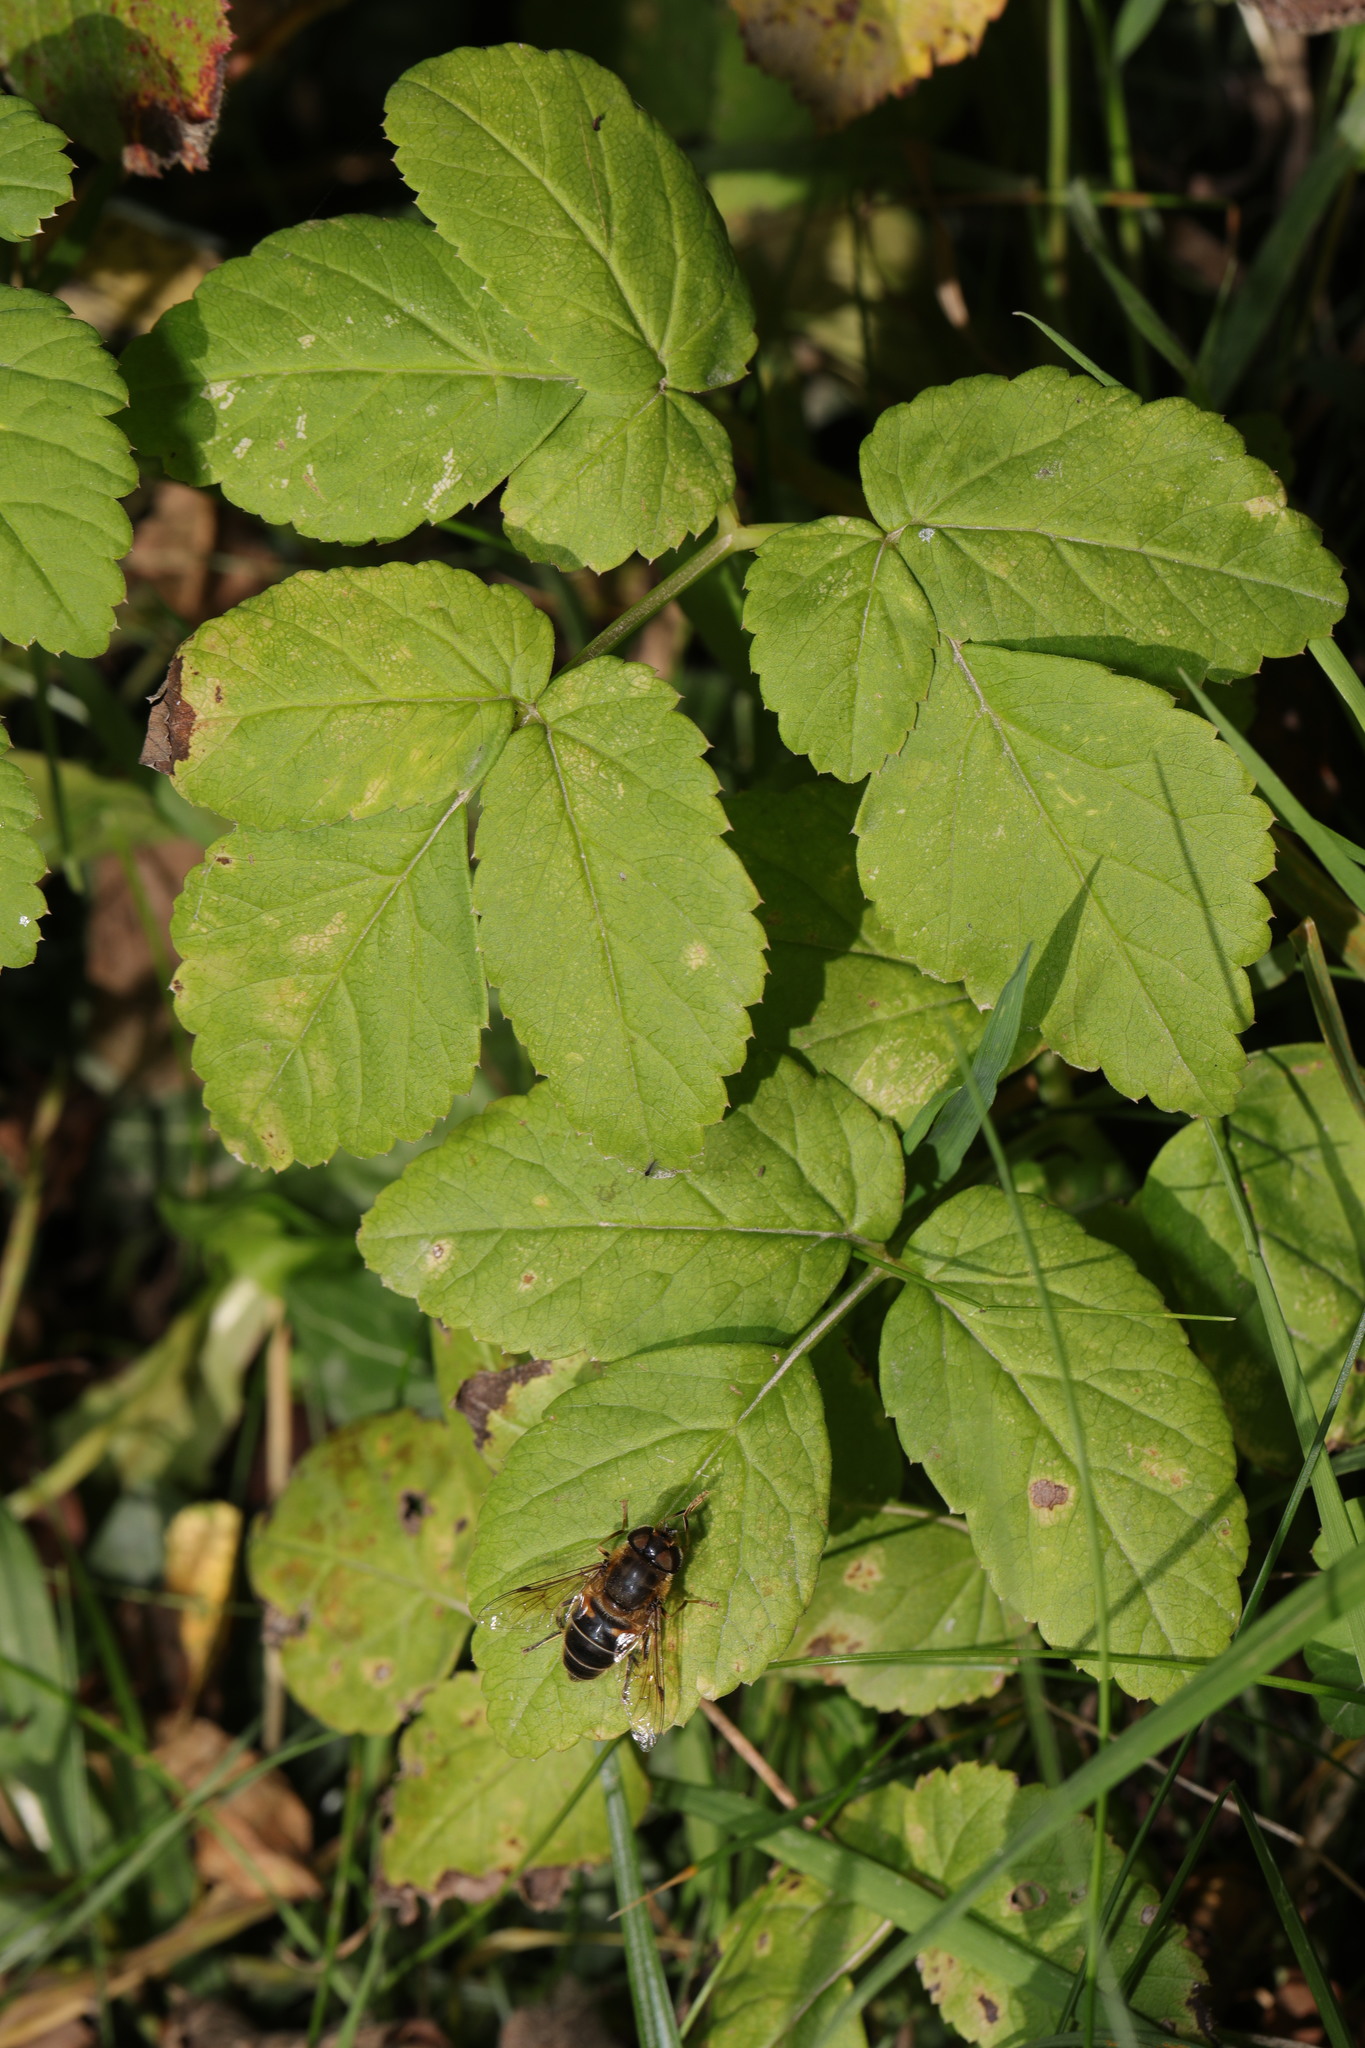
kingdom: Plantae
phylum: Tracheophyta
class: Magnoliopsida
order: Apiales
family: Apiaceae
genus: Aegopodium
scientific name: Aegopodium podagraria
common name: Ground-elder
